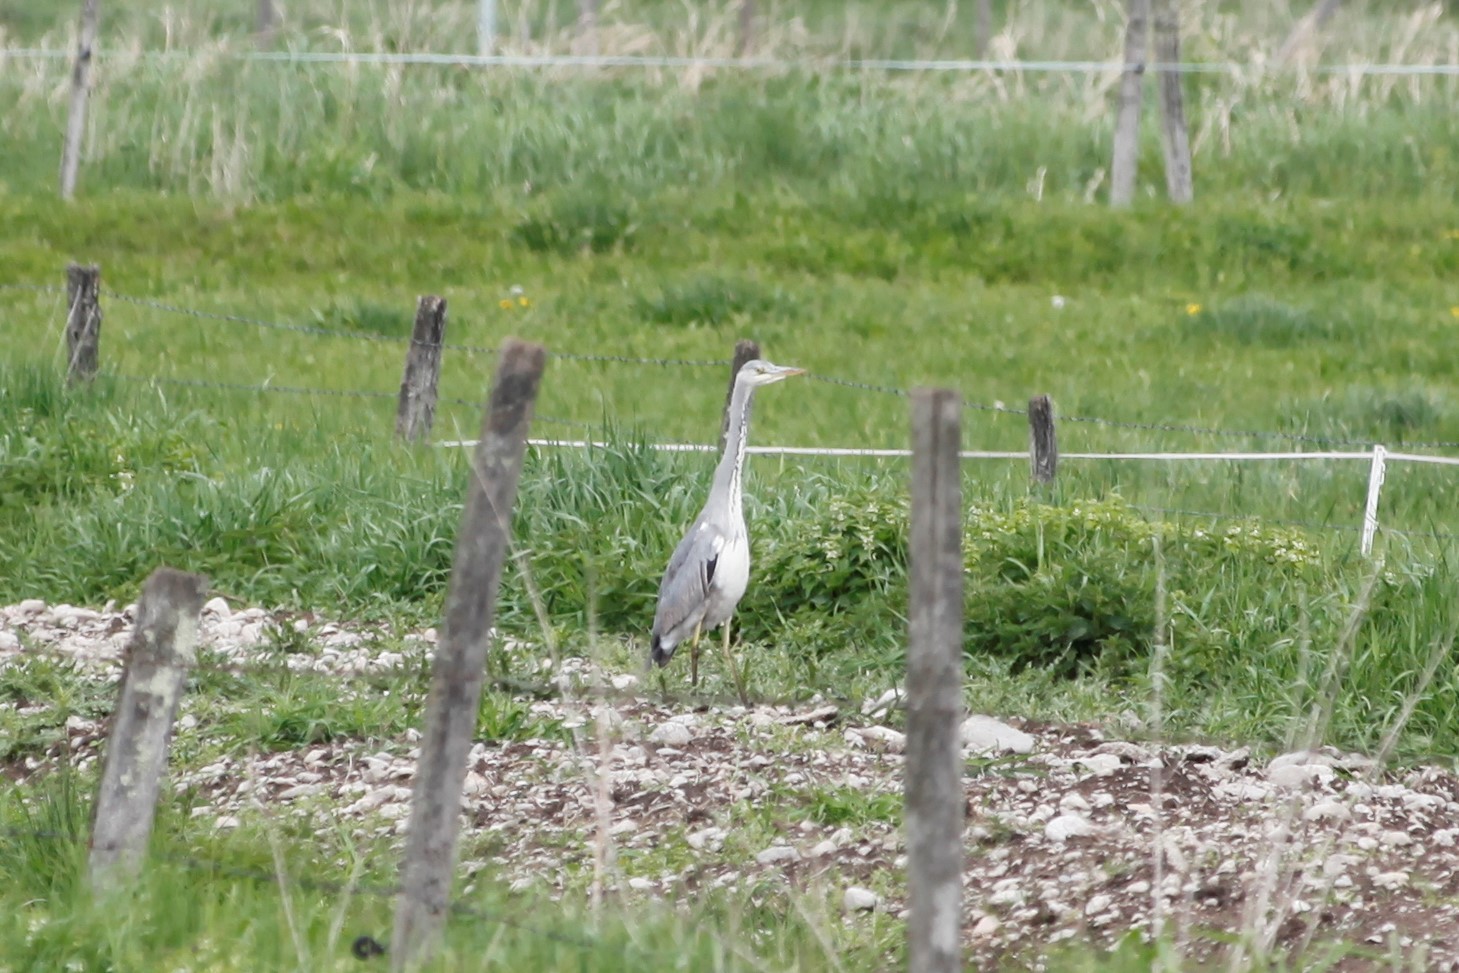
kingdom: Animalia
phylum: Chordata
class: Aves
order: Pelecaniformes
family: Ardeidae
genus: Ardea
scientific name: Ardea cinerea
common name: Grey heron
